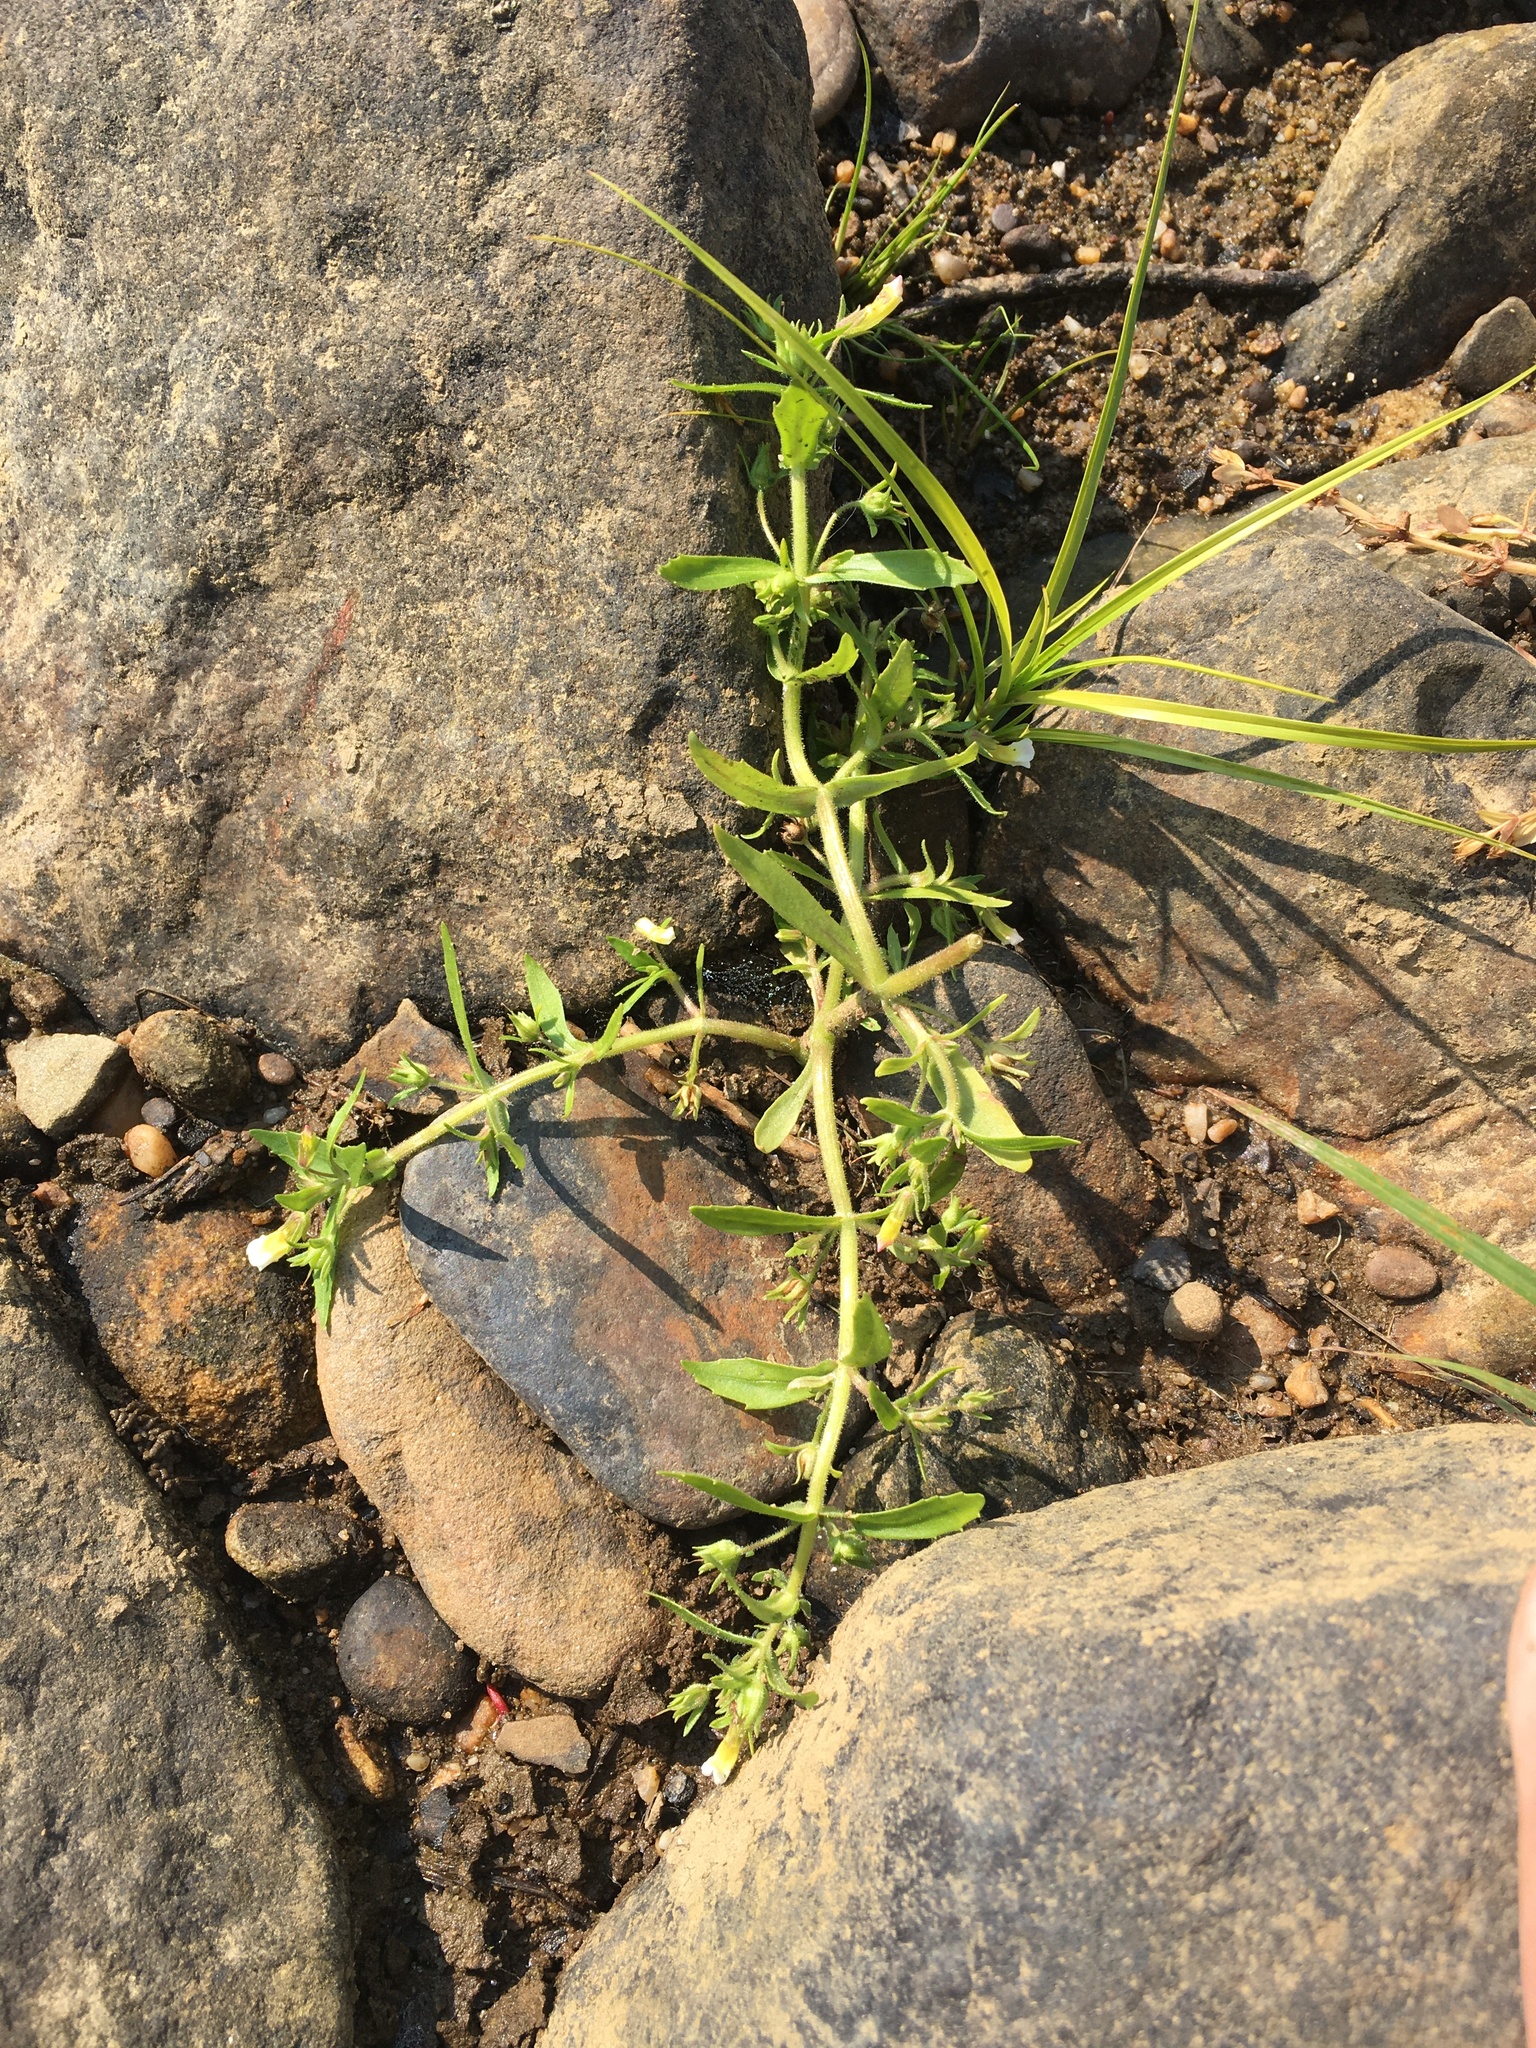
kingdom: Plantae
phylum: Tracheophyta
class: Magnoliopsida
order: Lamiales
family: Plantaginaceae
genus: Gratiola
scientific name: Gratiola neglecta
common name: American hedge-hyssop
